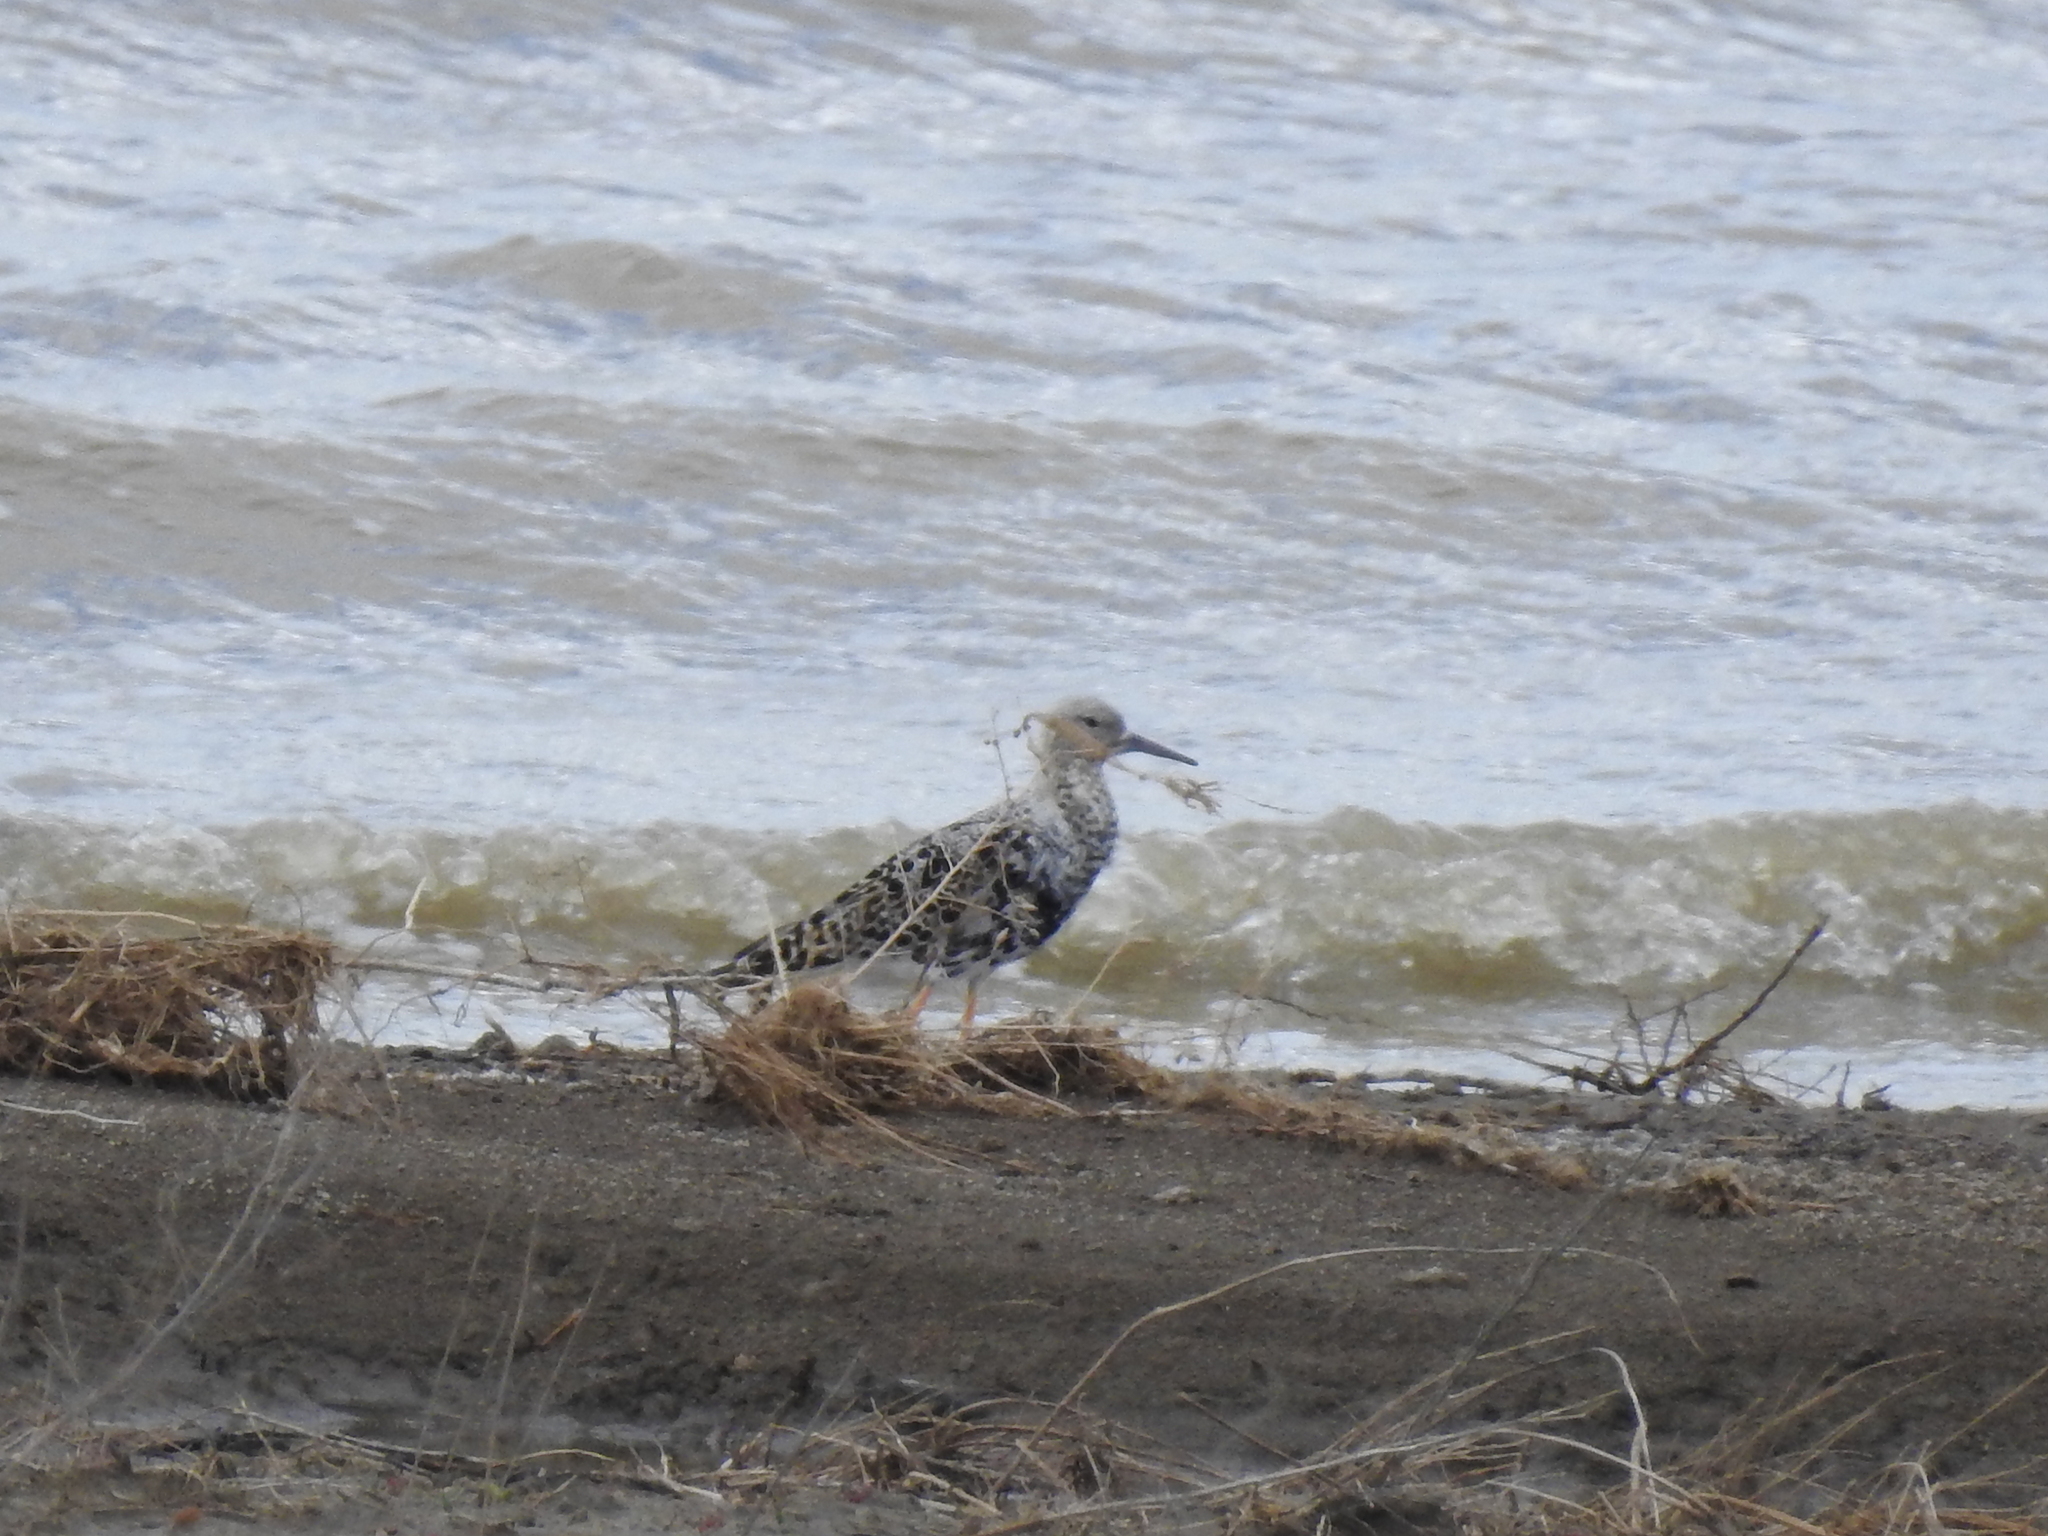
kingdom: Animalia
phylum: Chordata
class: Aves
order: Charadriiformes
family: Scolopacidae
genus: Calidris
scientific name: Calidris pugnax
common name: Ruff
